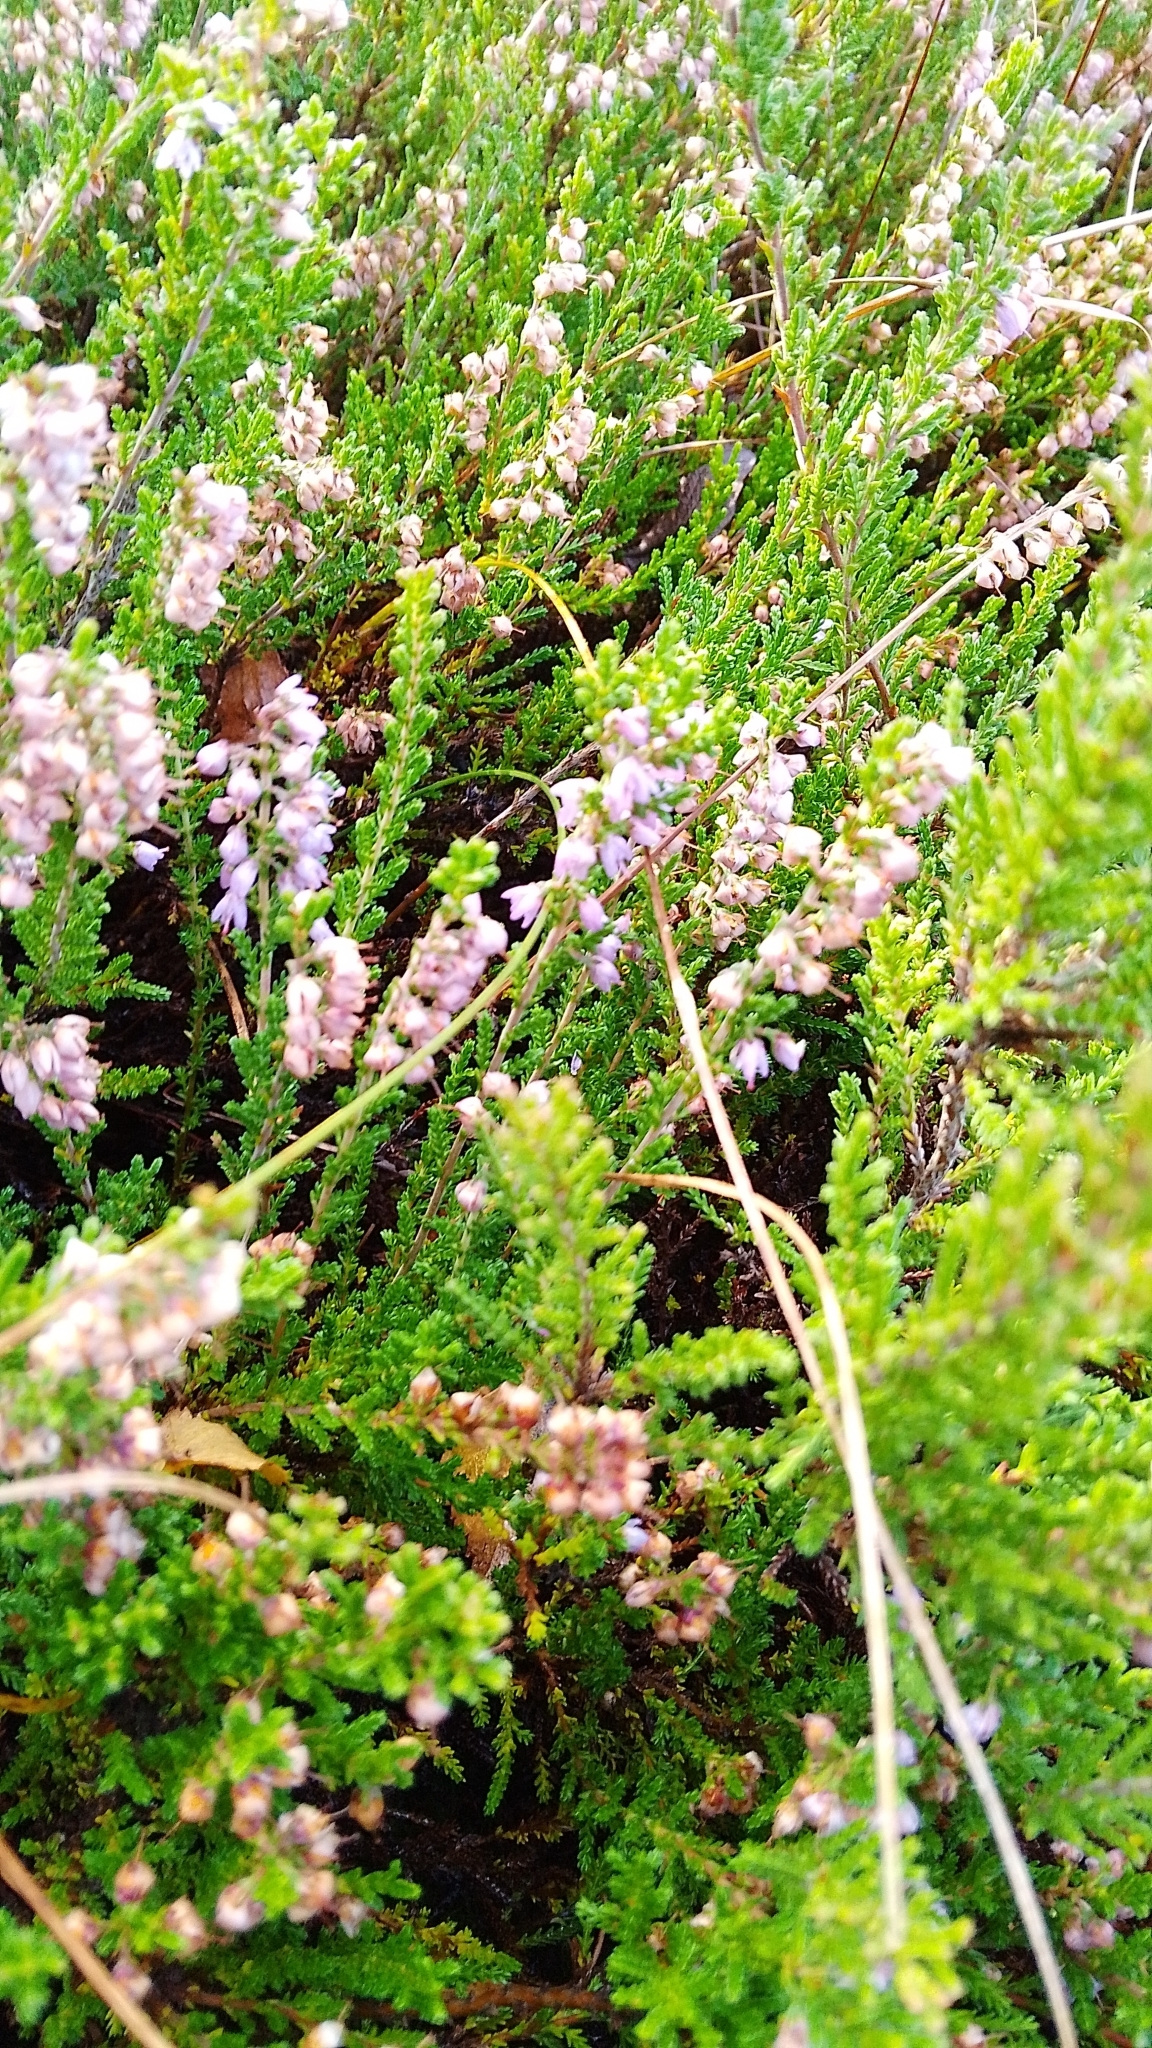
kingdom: Plantae
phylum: Tracheophyta
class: Magnoliopsida
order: Ericales
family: Ericaceae
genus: Calluna
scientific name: Calluna vulgaris
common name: Heather
